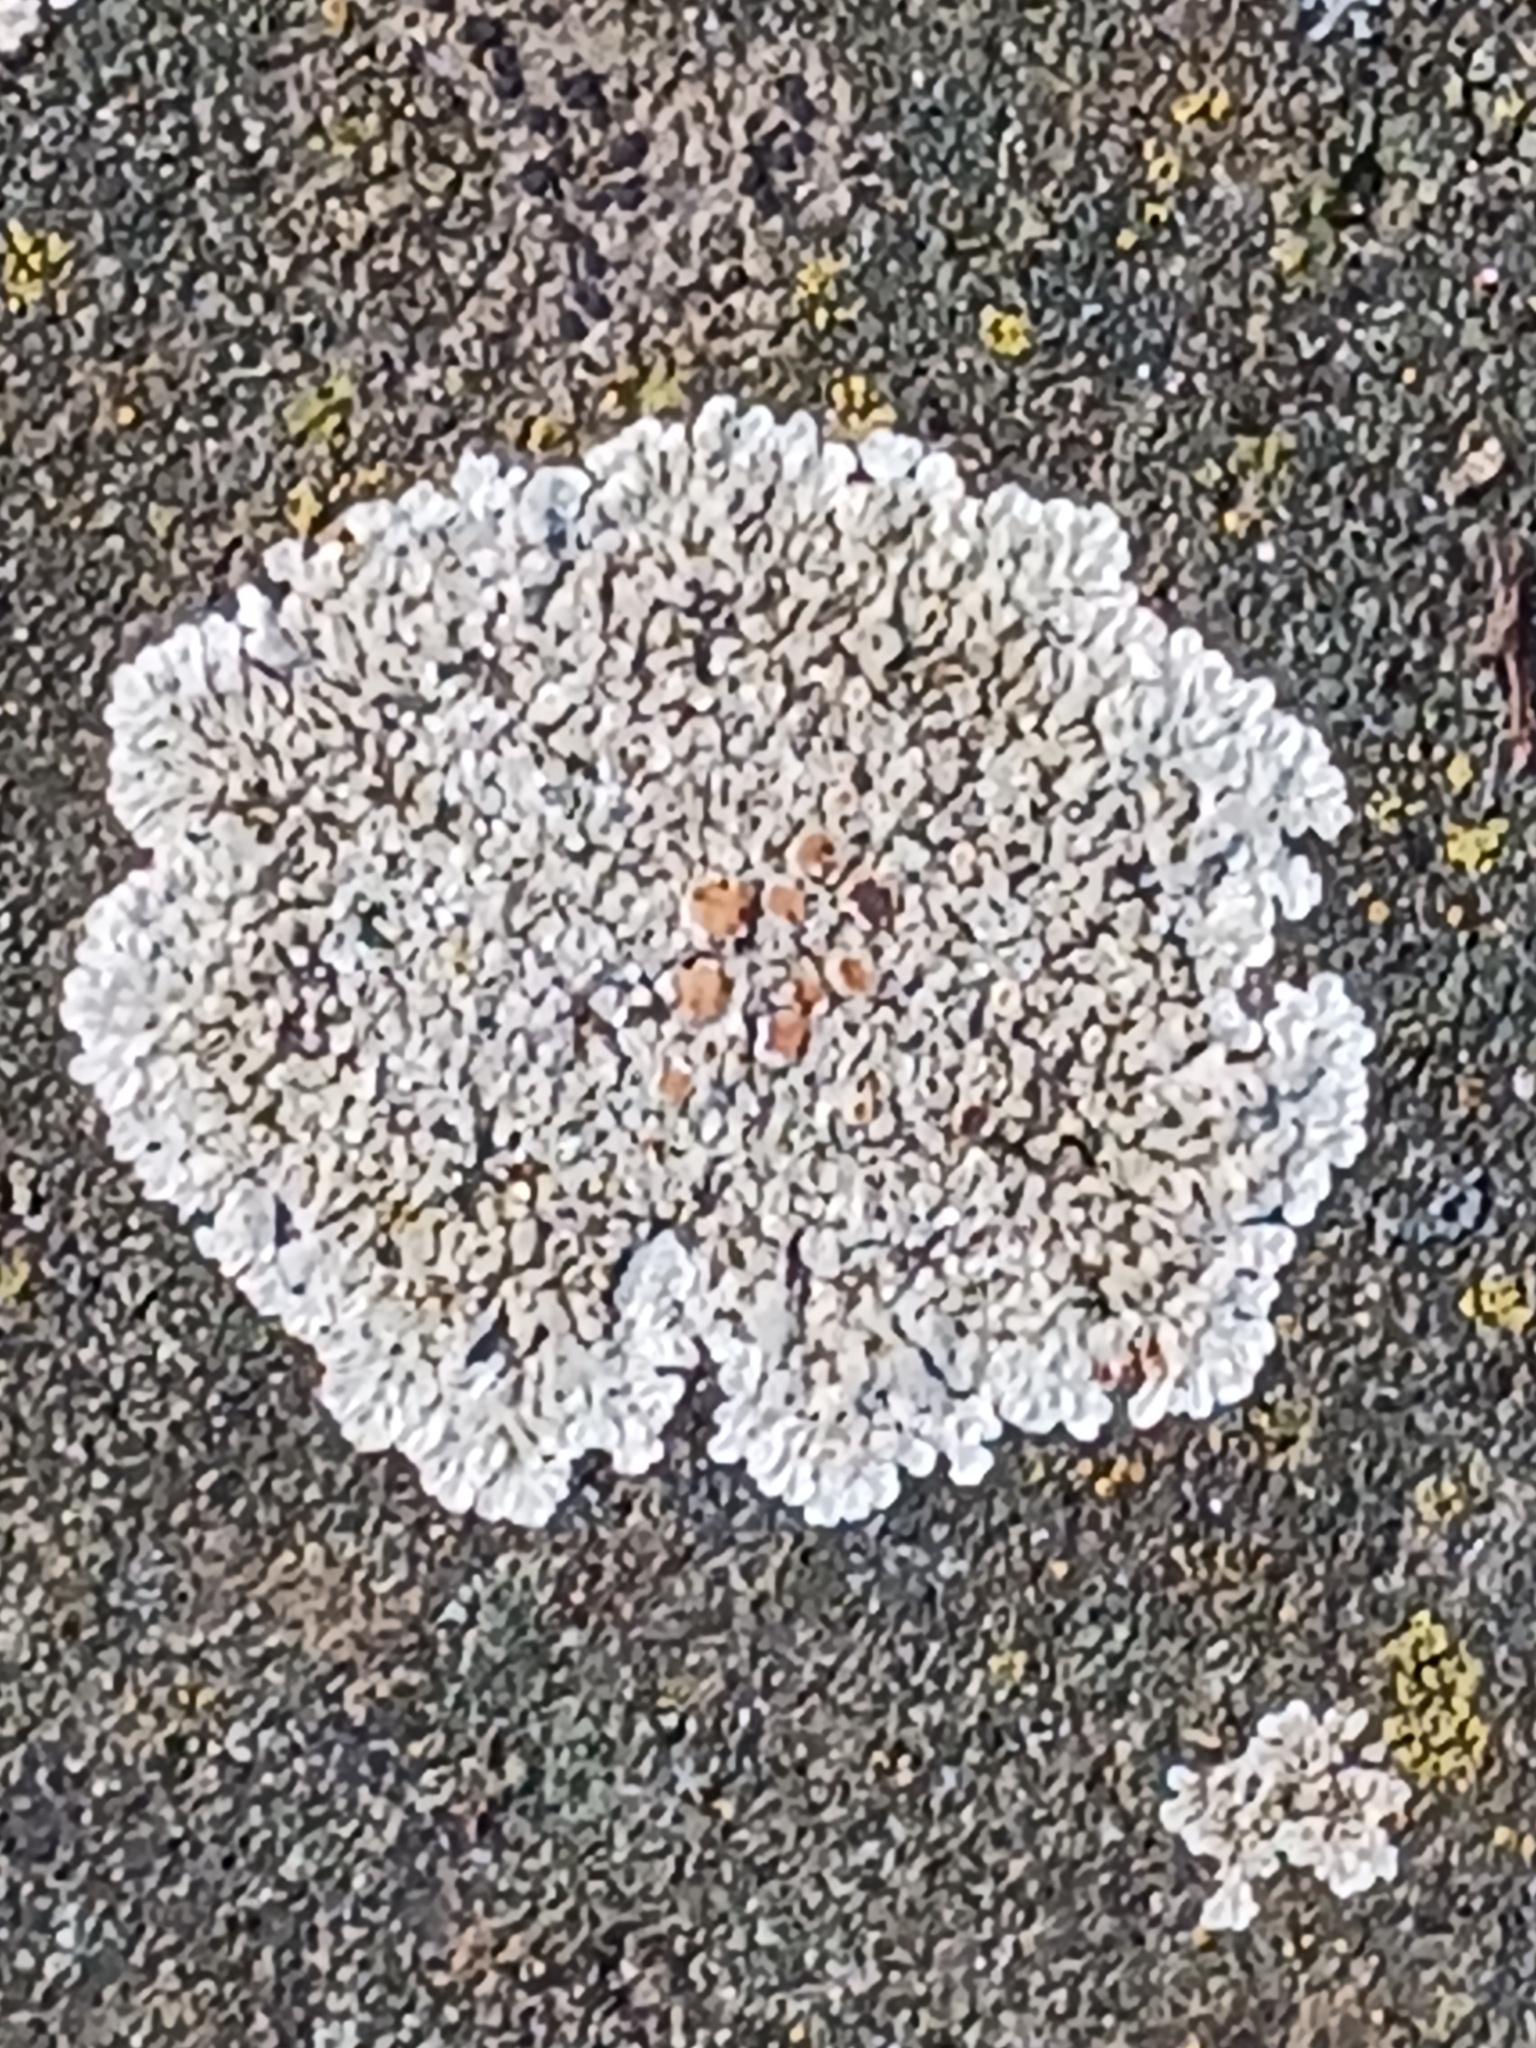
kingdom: Fungi
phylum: Ascomycota
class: Lecanoromycetes
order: Lecanorales
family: Lecanoraceae
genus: Protoparmeliopsis
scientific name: Protoparmeliopsis muralis
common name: Stonewall rim lichen
